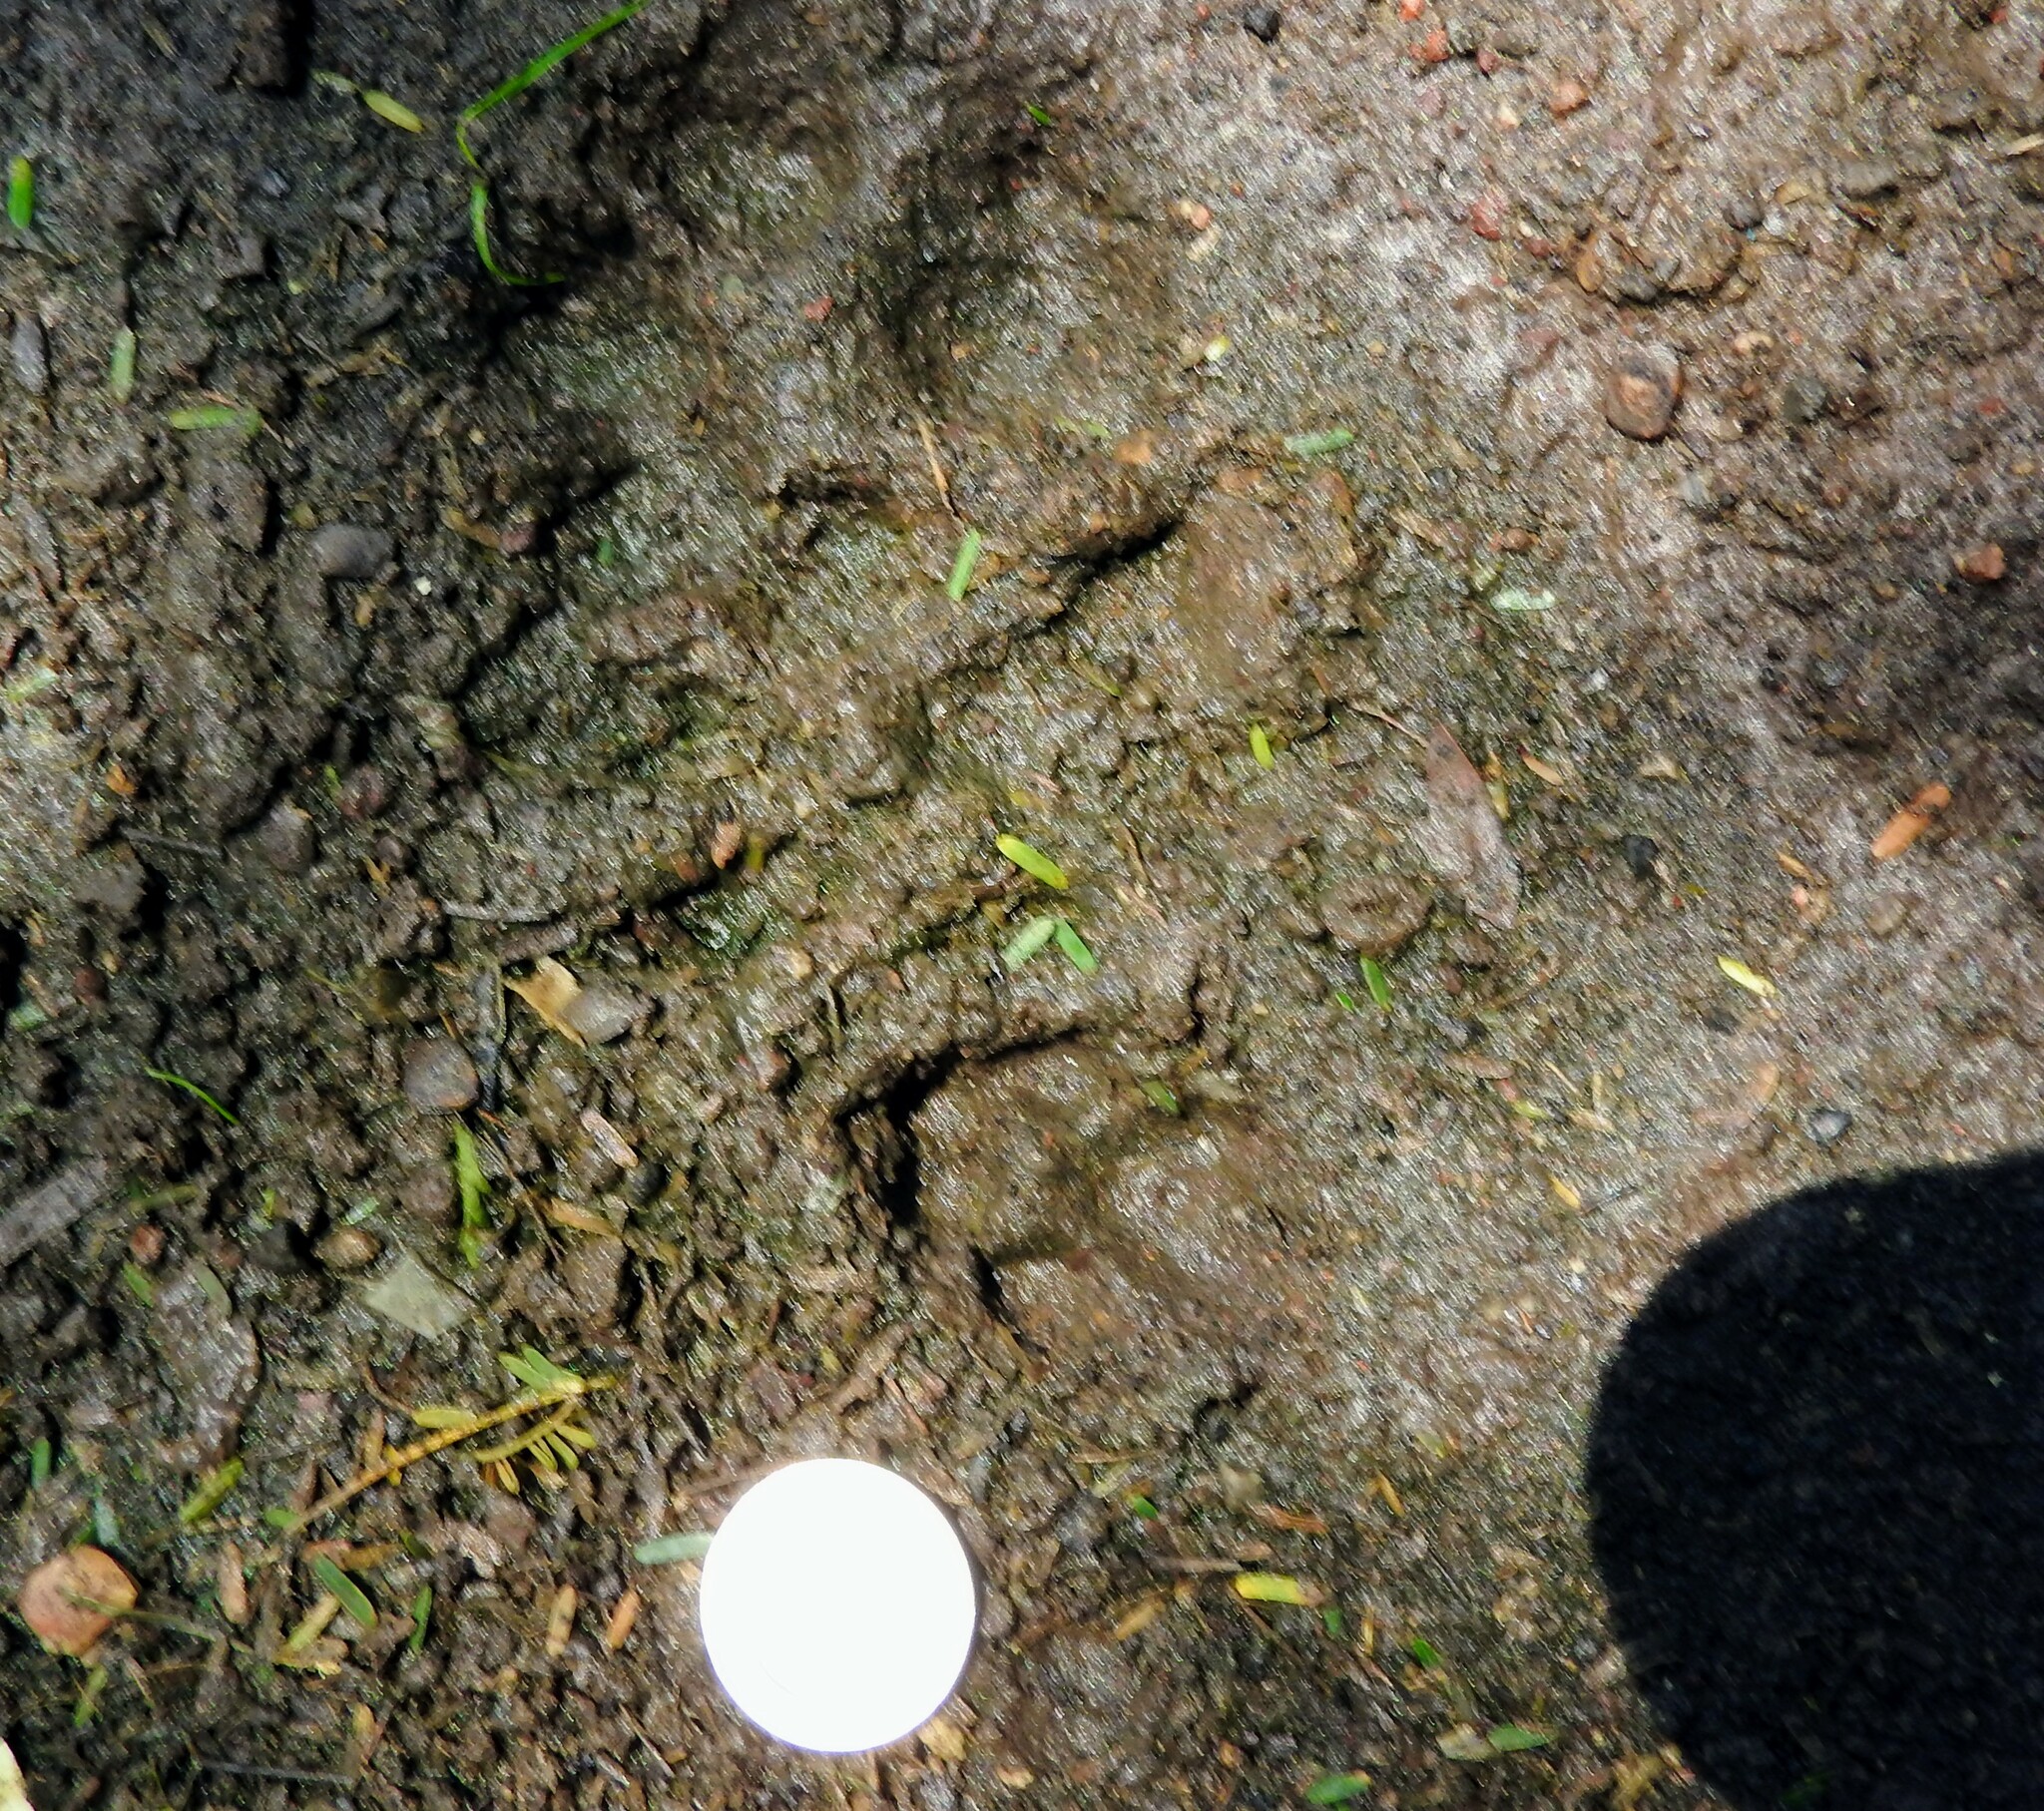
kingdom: Animalia
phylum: Chordata
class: Mammalia
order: Carnivora
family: Canidae
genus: Urocyon
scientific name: Urocyon cinereoargenteus
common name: Gray fox
